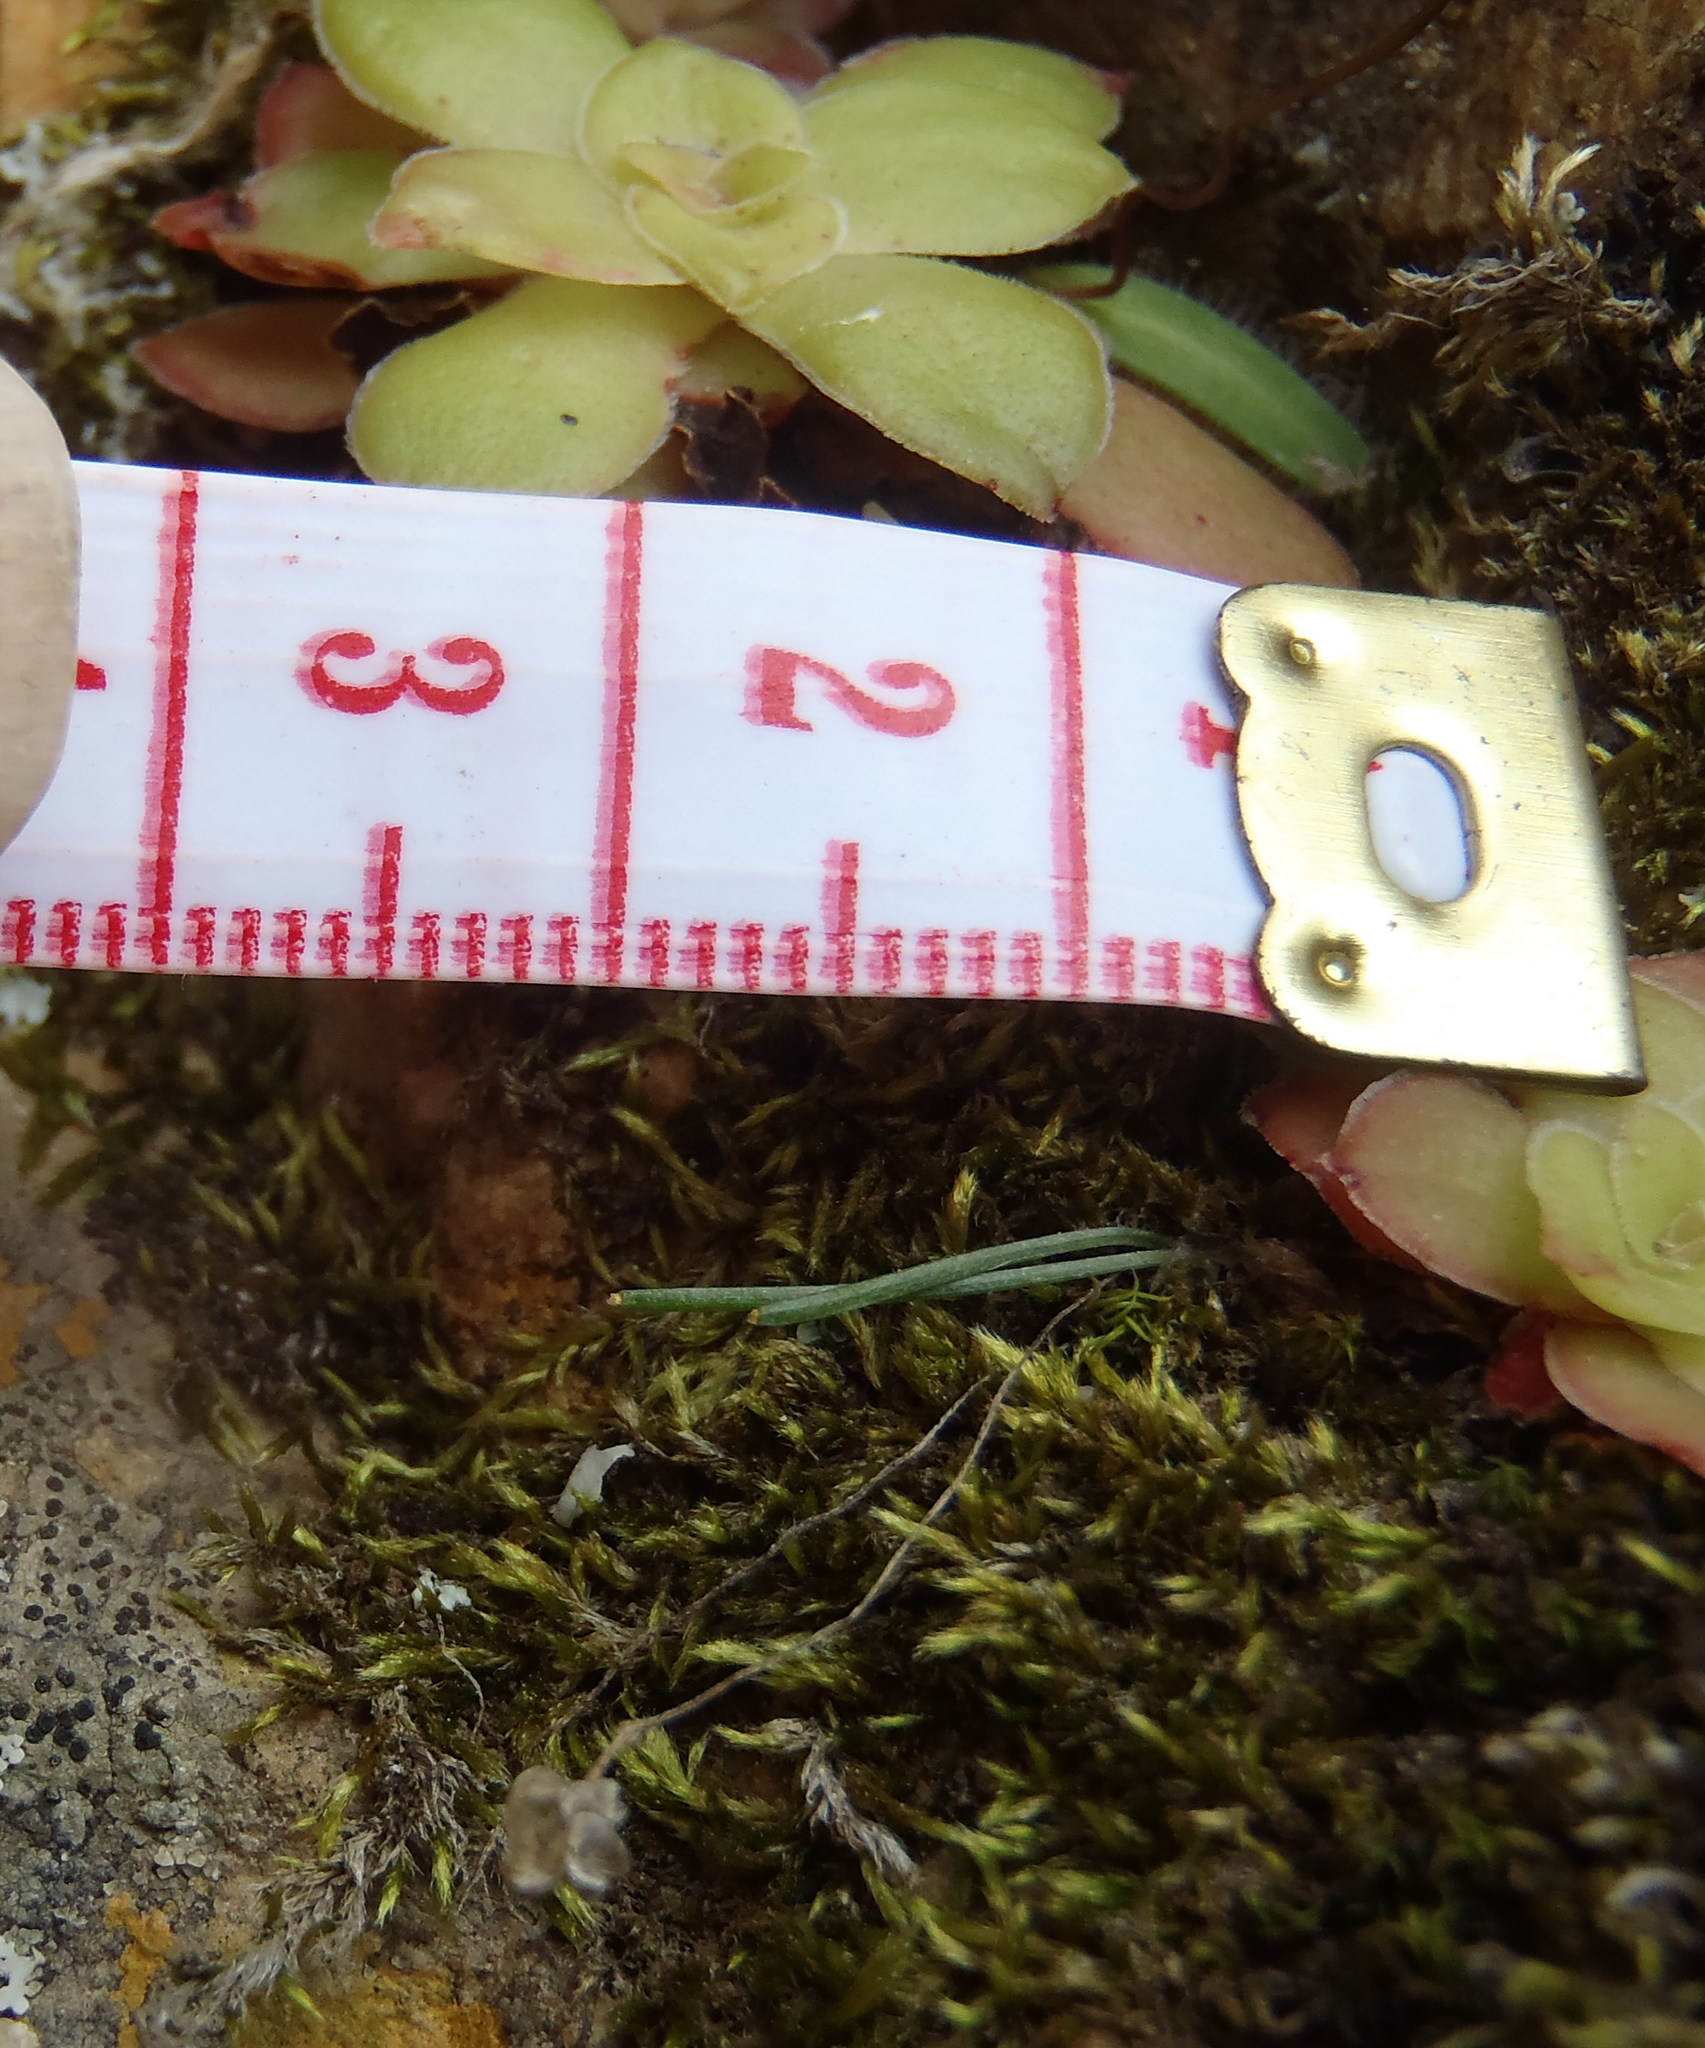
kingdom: Plantae
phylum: Tracheophyta
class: Liliopsida
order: Asparagales
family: Asparagaceae
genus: Drimia
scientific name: Drimia uniflora
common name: Fairy bell
